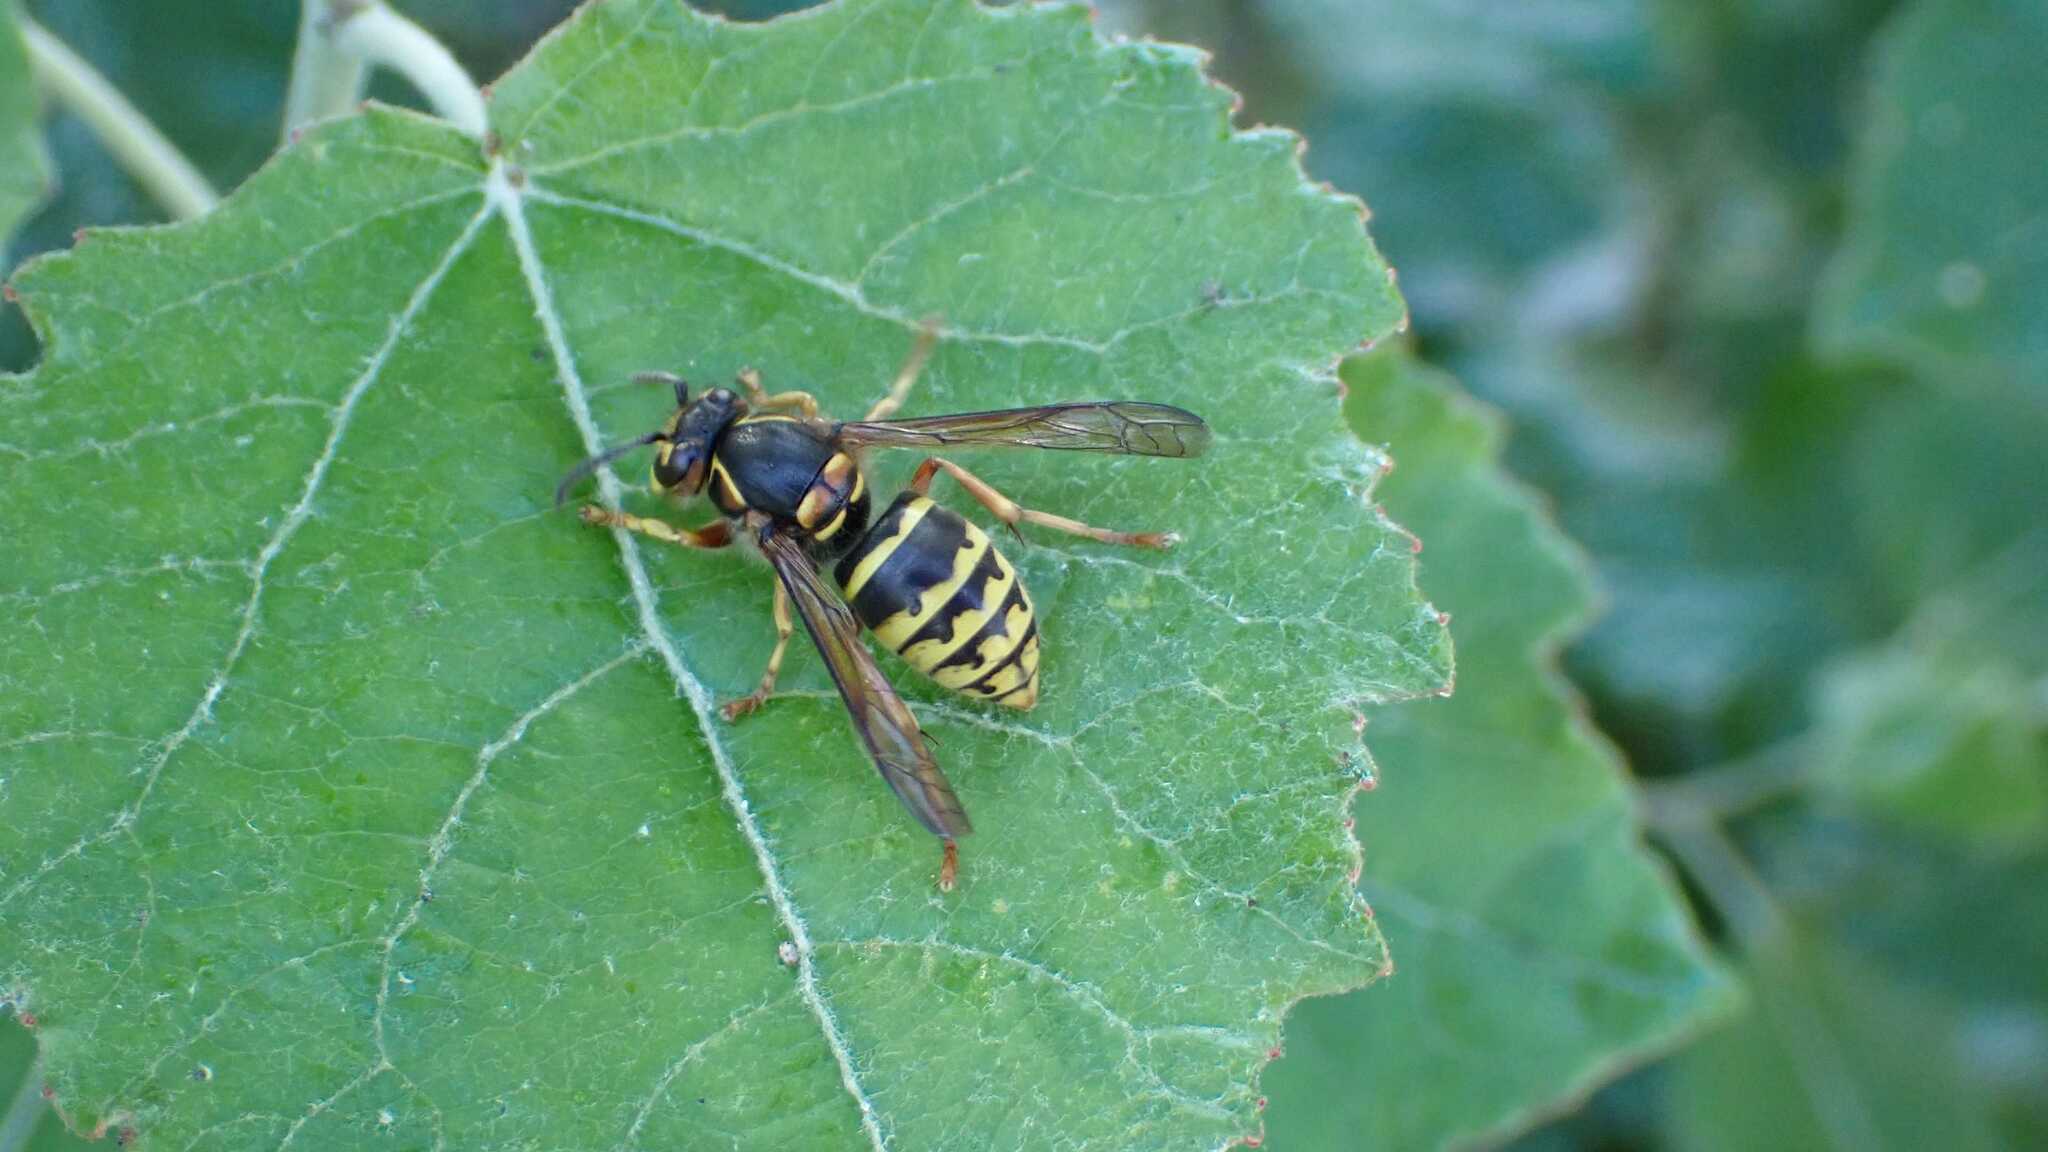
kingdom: Animalia
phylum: Arthropoda
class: Insecta
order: Hymenoptera
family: Vespidae
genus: Dolichovespula
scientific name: Dolichovespula media
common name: Median wasp
